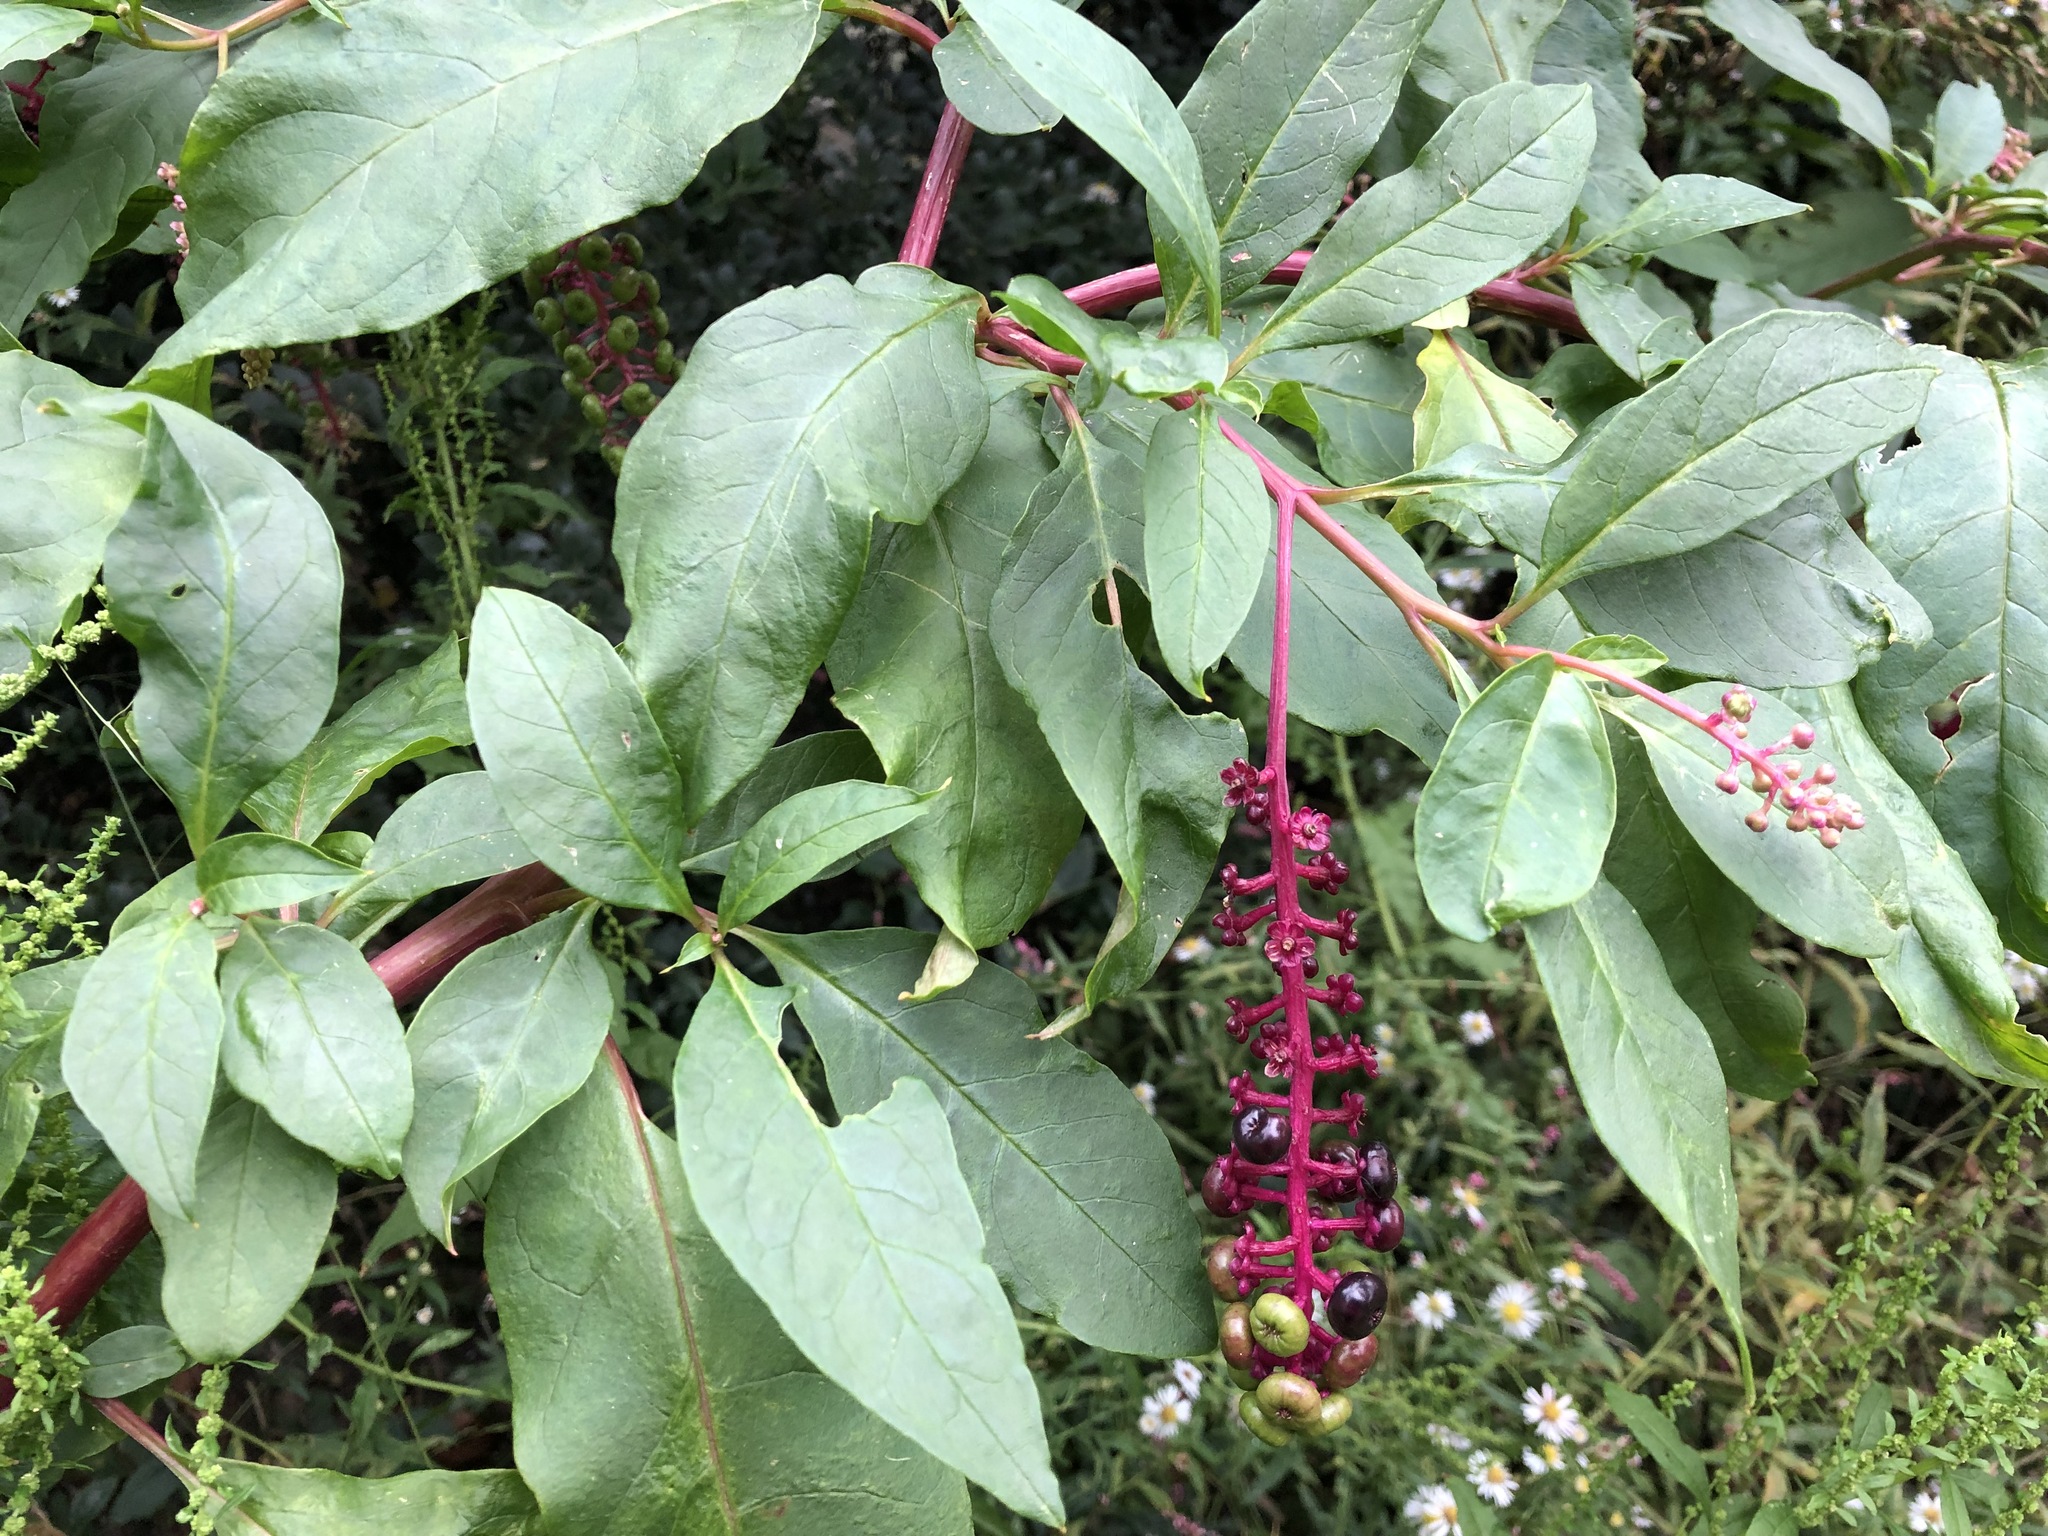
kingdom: Plantae
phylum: Tracheophyta
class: Magnoliopsida
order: Caryophyllales
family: Phytolaccaceae
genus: Phytolacca
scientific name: Phytolacca americana
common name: American pokeweed
